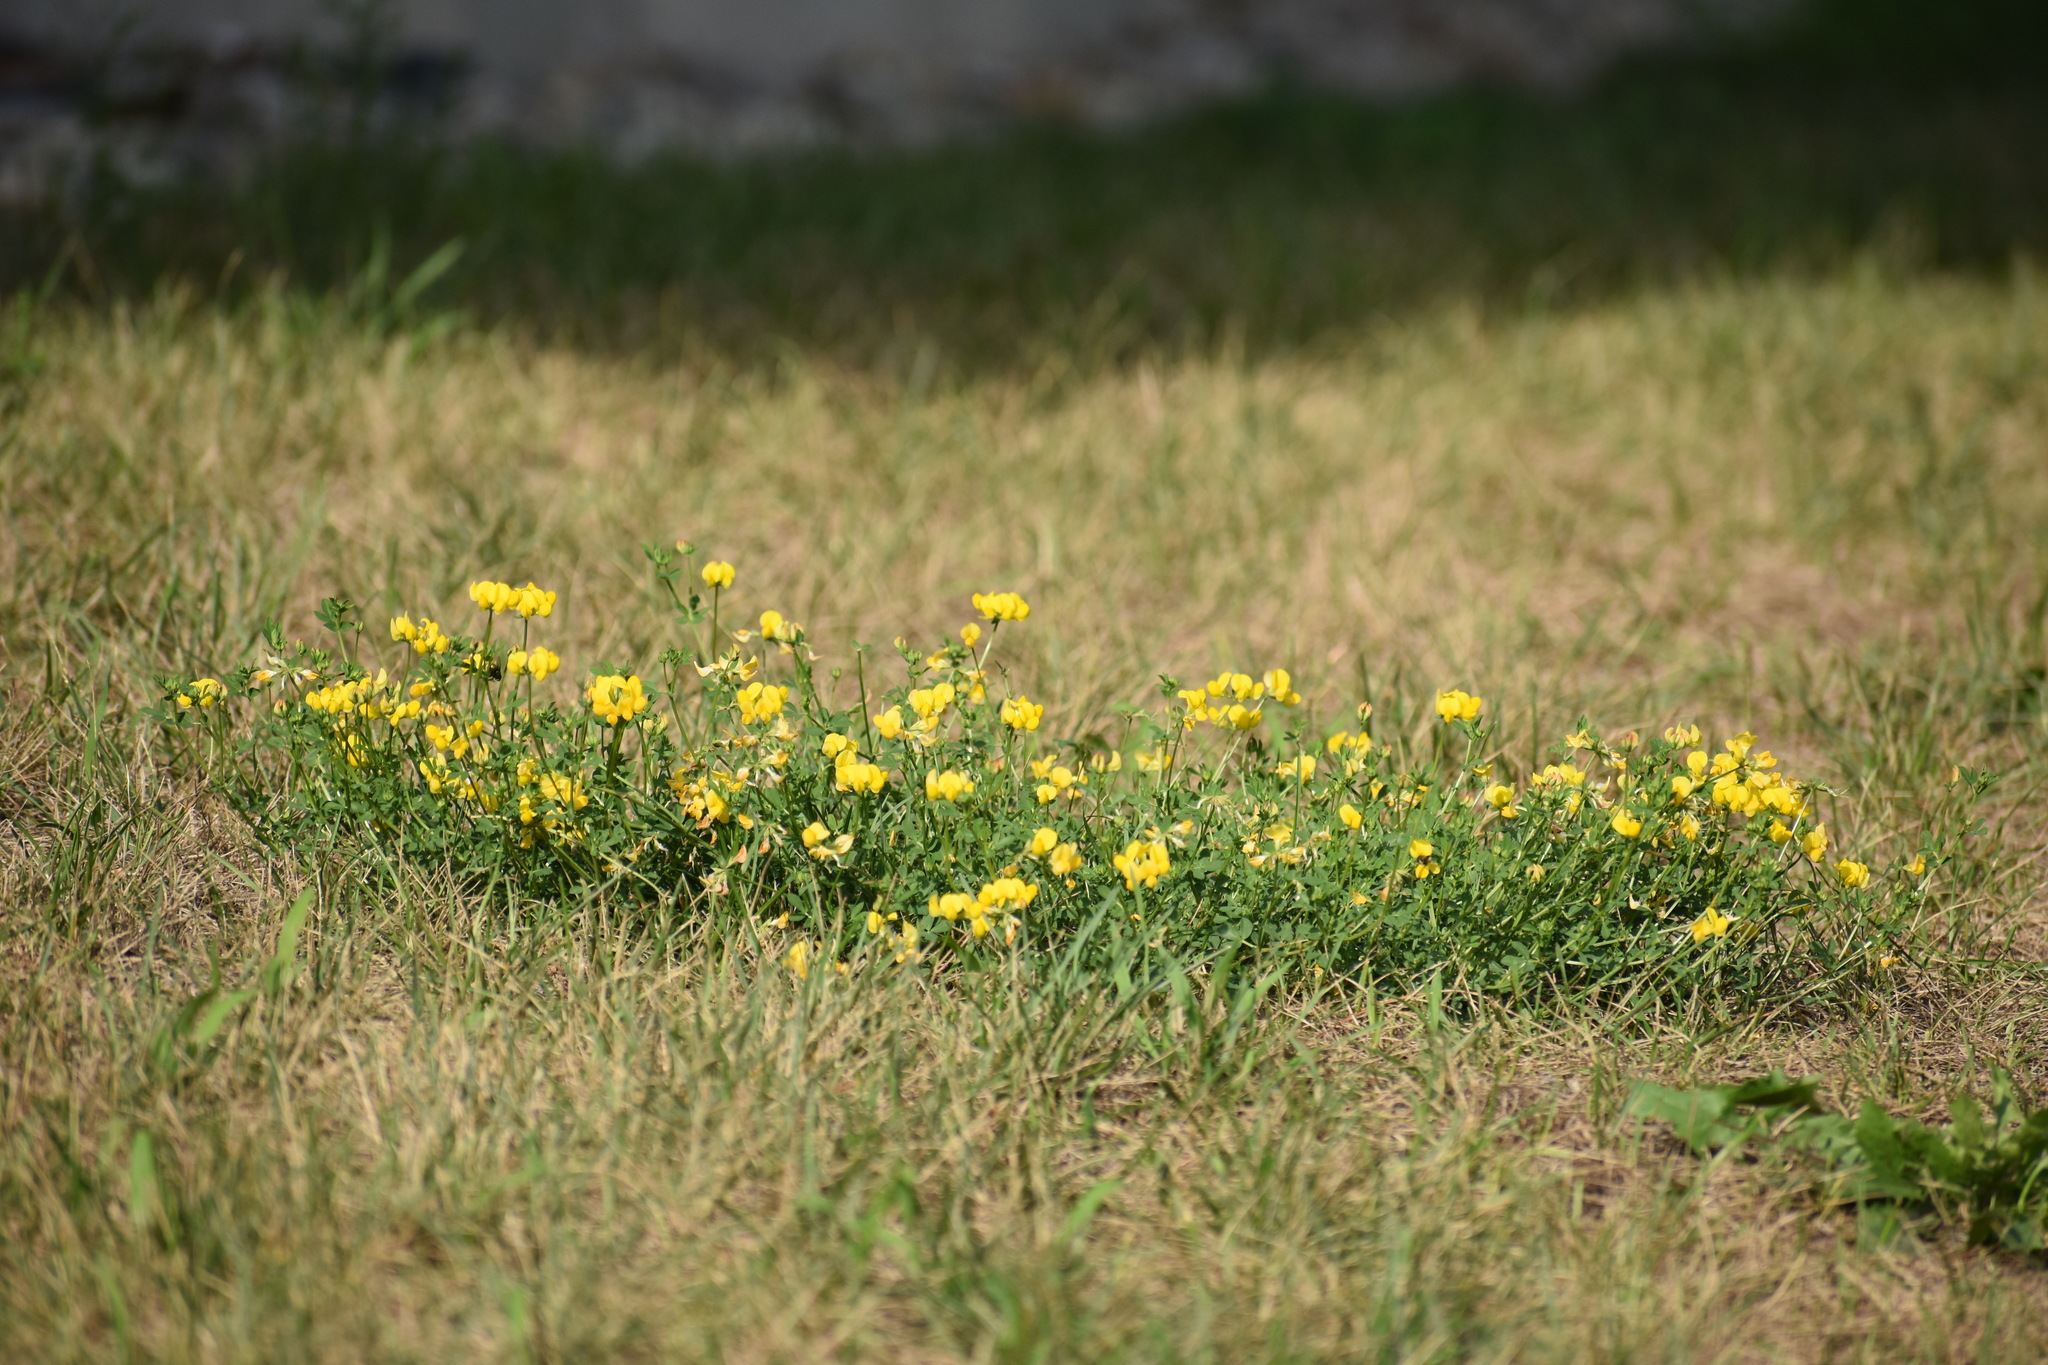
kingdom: Plantae
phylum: Tracheophyta
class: Magnoliopsida
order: Fabales
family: Fabaceae
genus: Lotus
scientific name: Lotus corniculatus
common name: Common bird's-foot-trefoil
